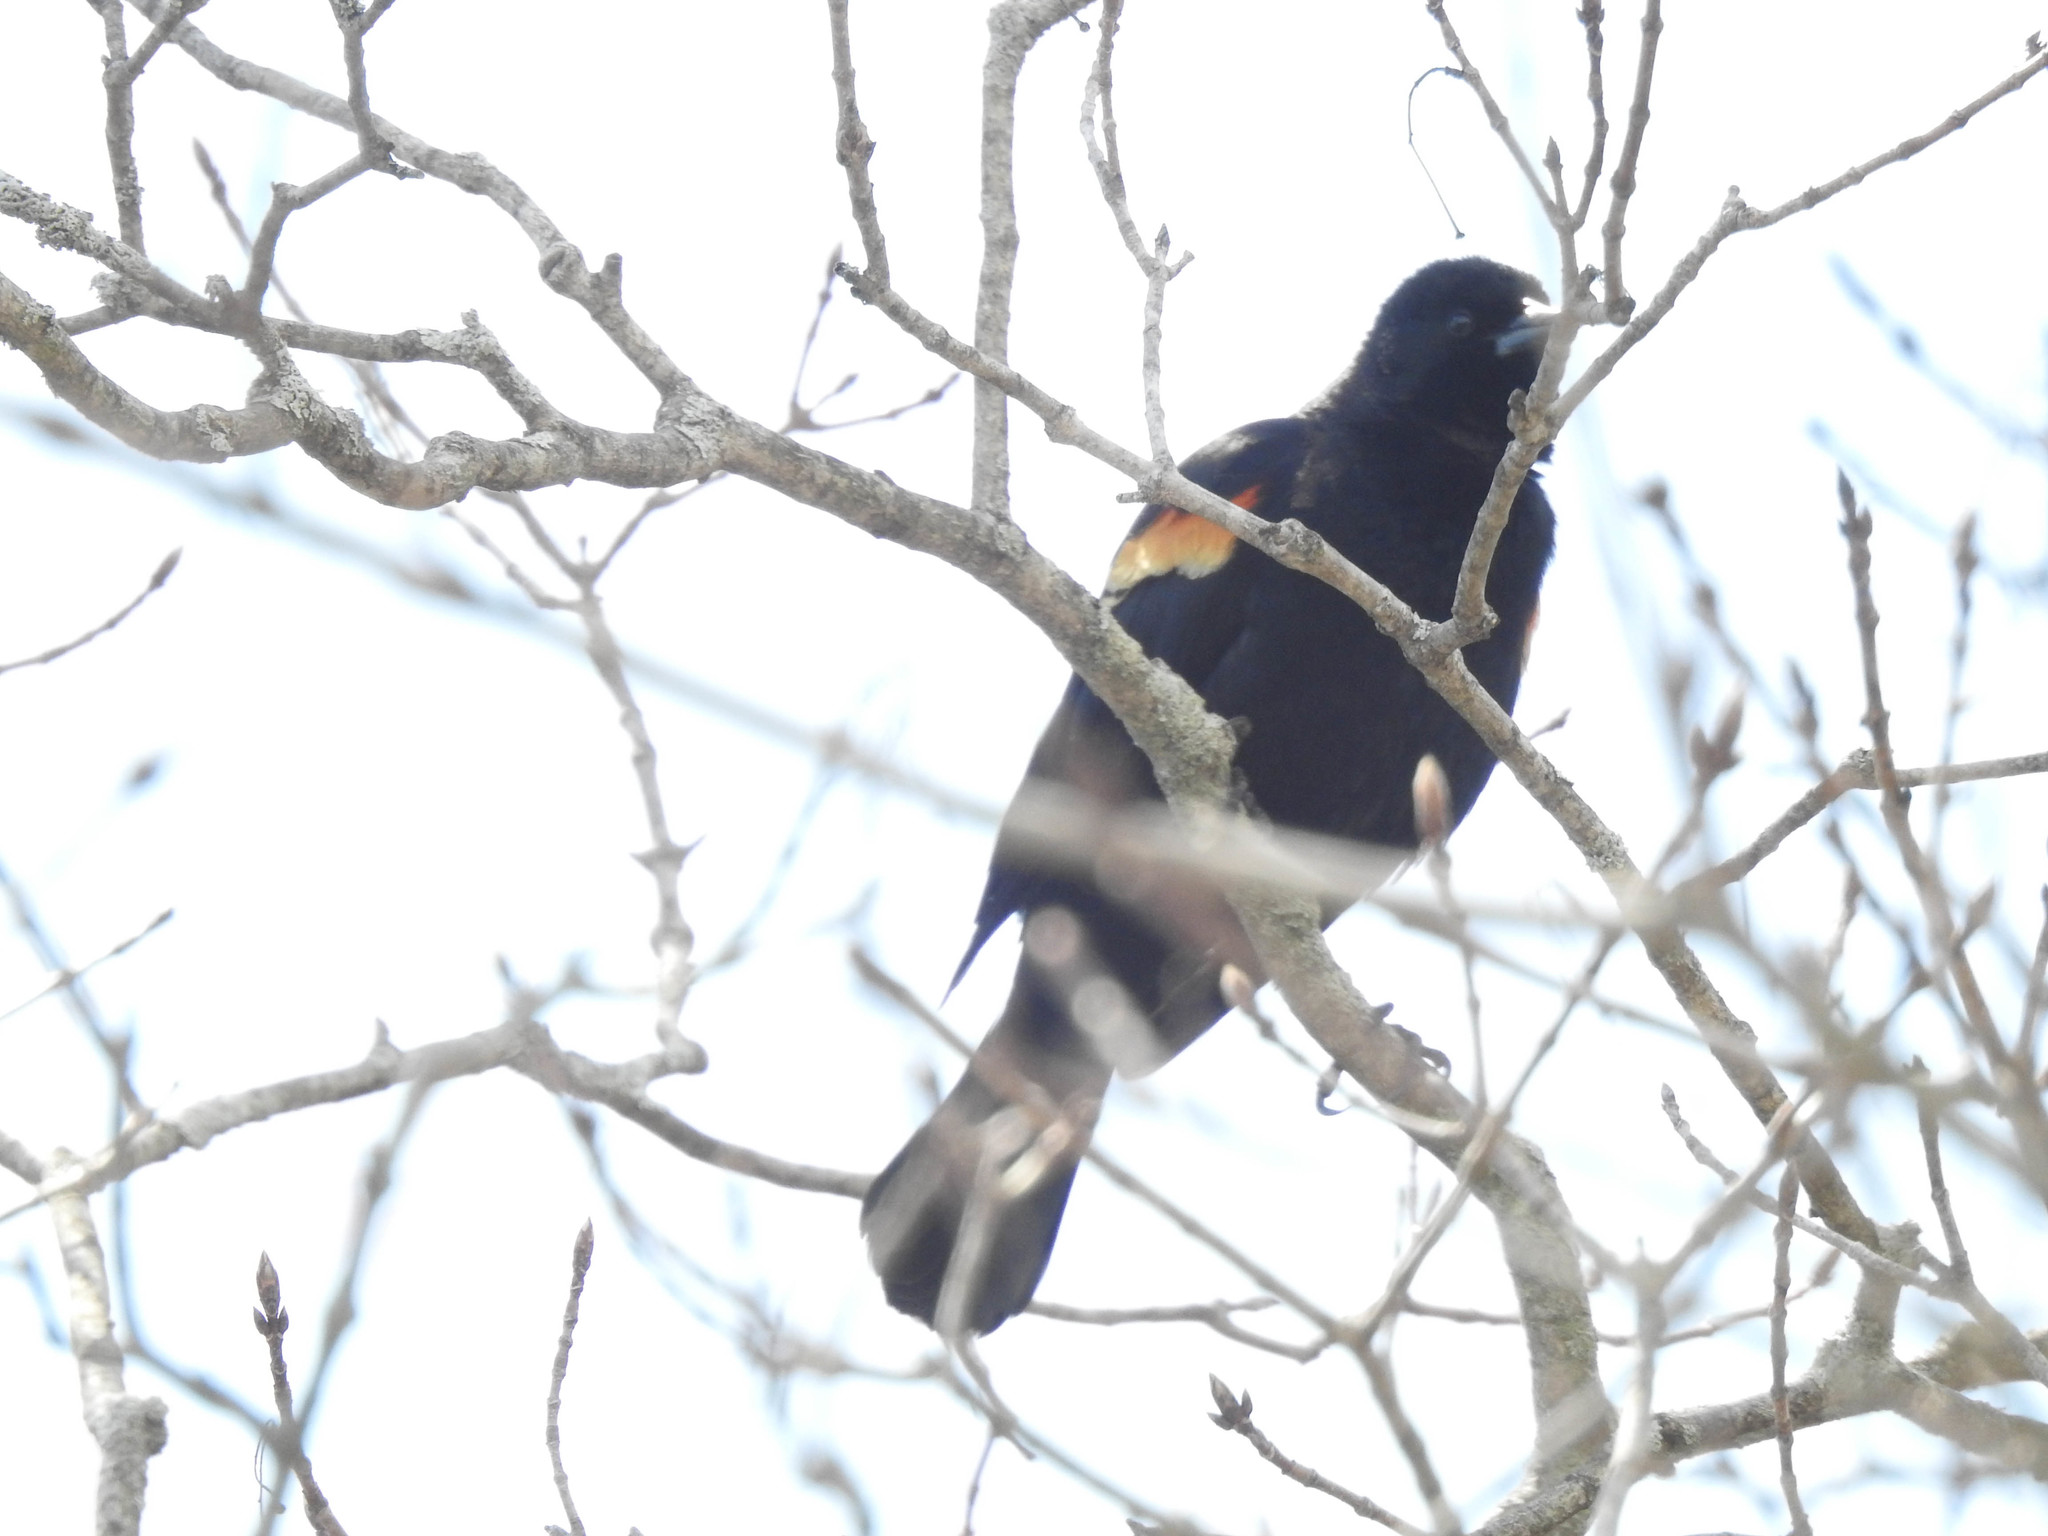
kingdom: Animalia
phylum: Chordata
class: Aves
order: Passeriformes
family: Icteridae
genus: Agelaius
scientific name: Agelaius phoeniceus
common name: Red-winged blackbird
